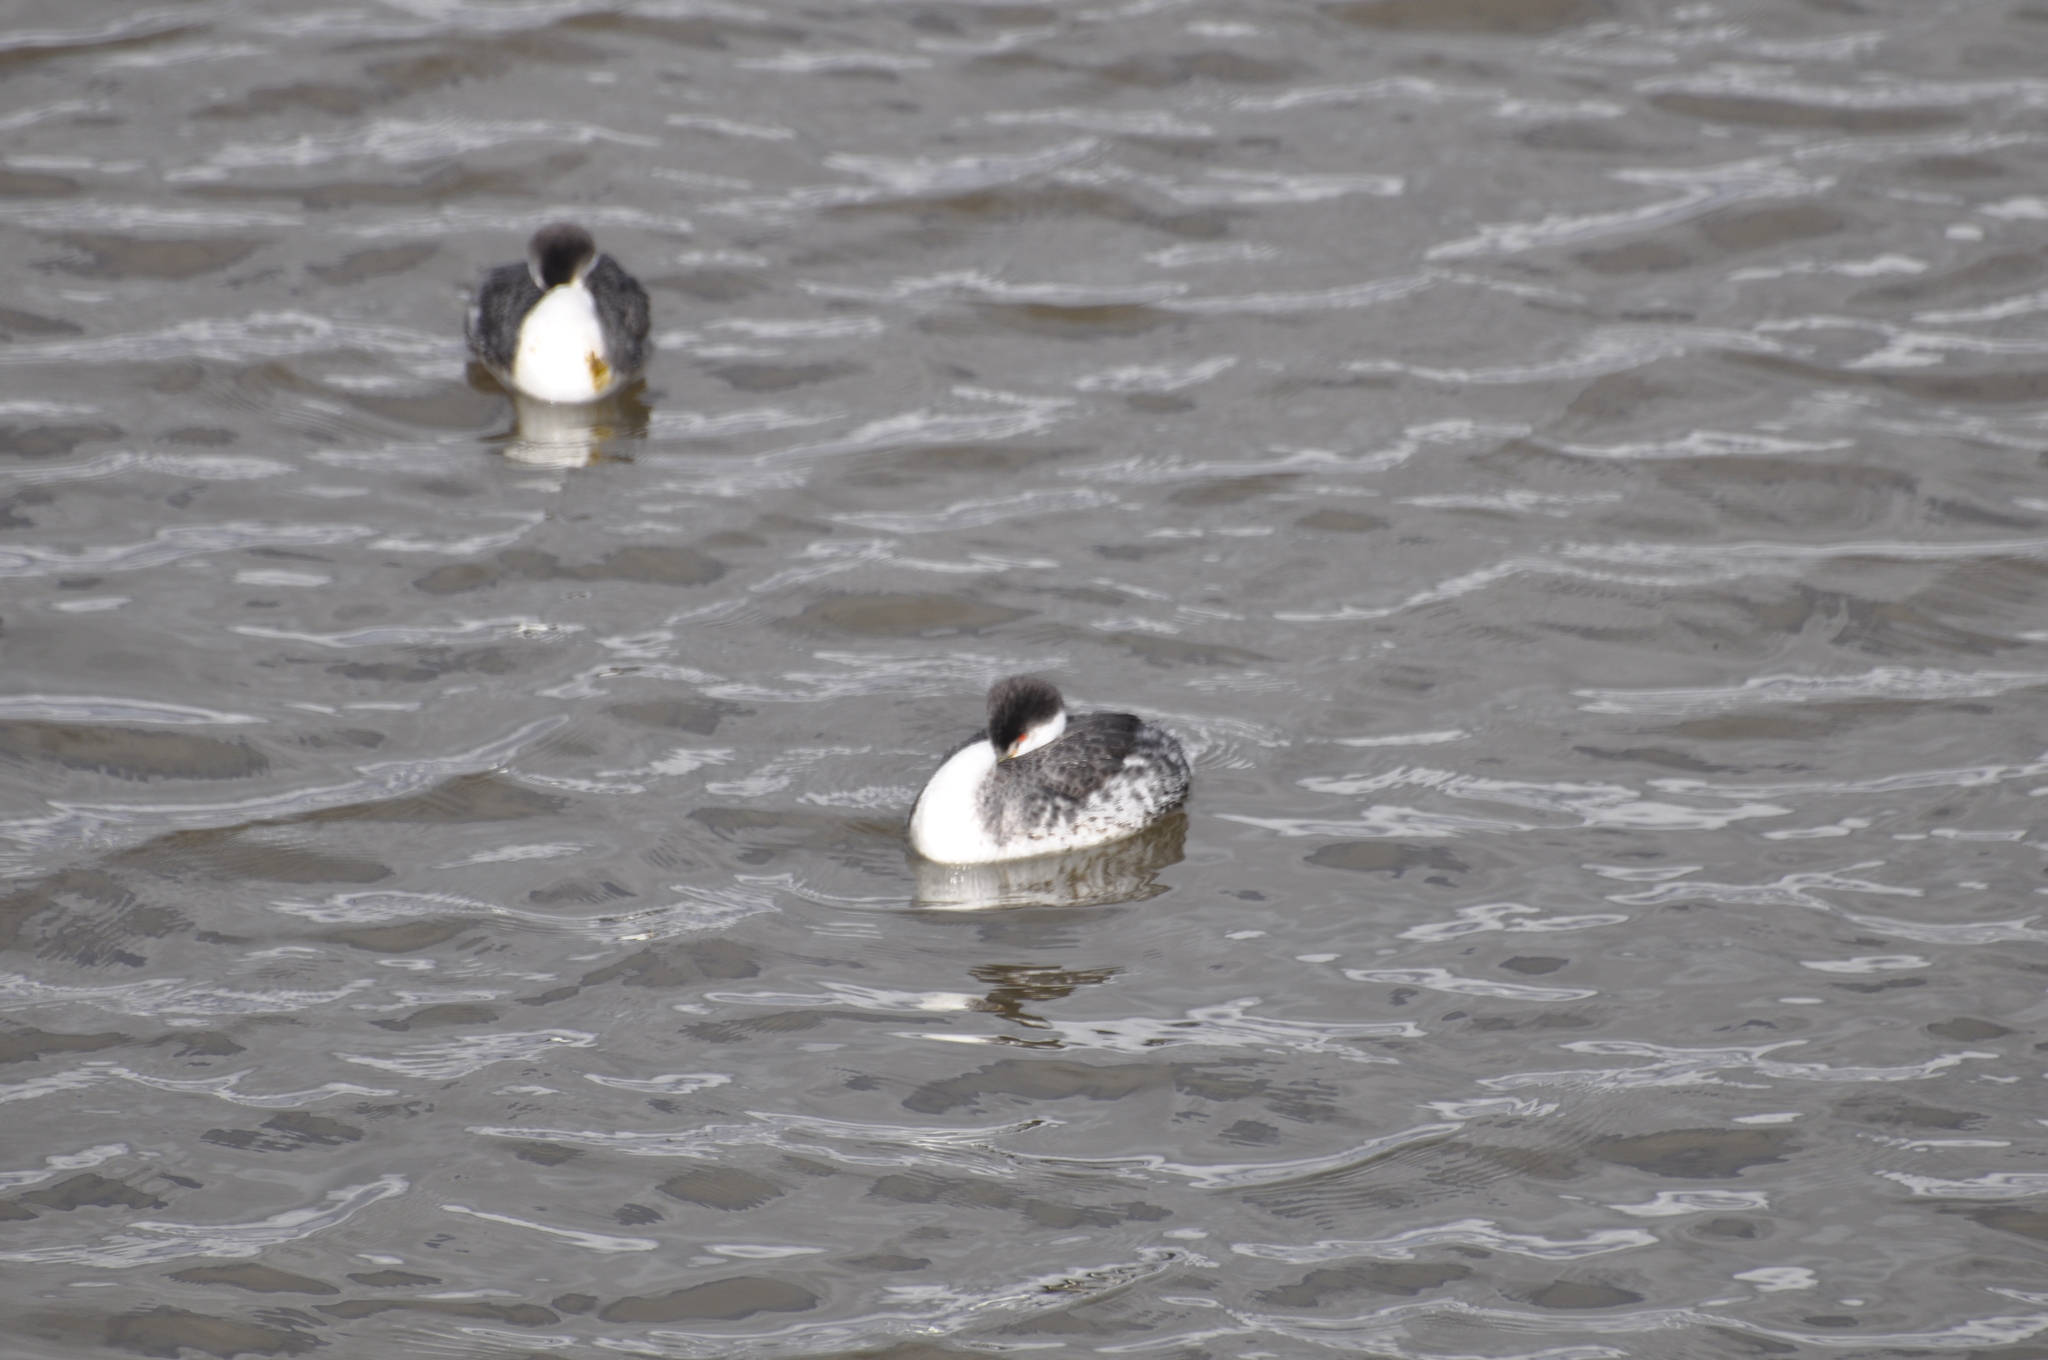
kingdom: Animalia
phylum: Chordata
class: Aves
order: Podicipediformes
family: Podicipedidae
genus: Aechmophorus
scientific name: Aechmophorus
